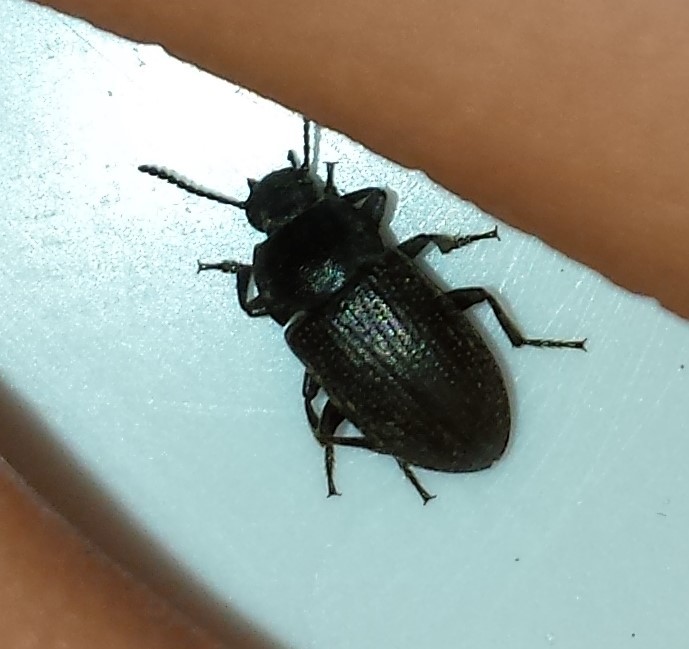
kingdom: Animalia
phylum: Arthropoda
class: Insecta
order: Coleoptera
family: Tenebrionidae
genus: Asiopus
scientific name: Asiopus
